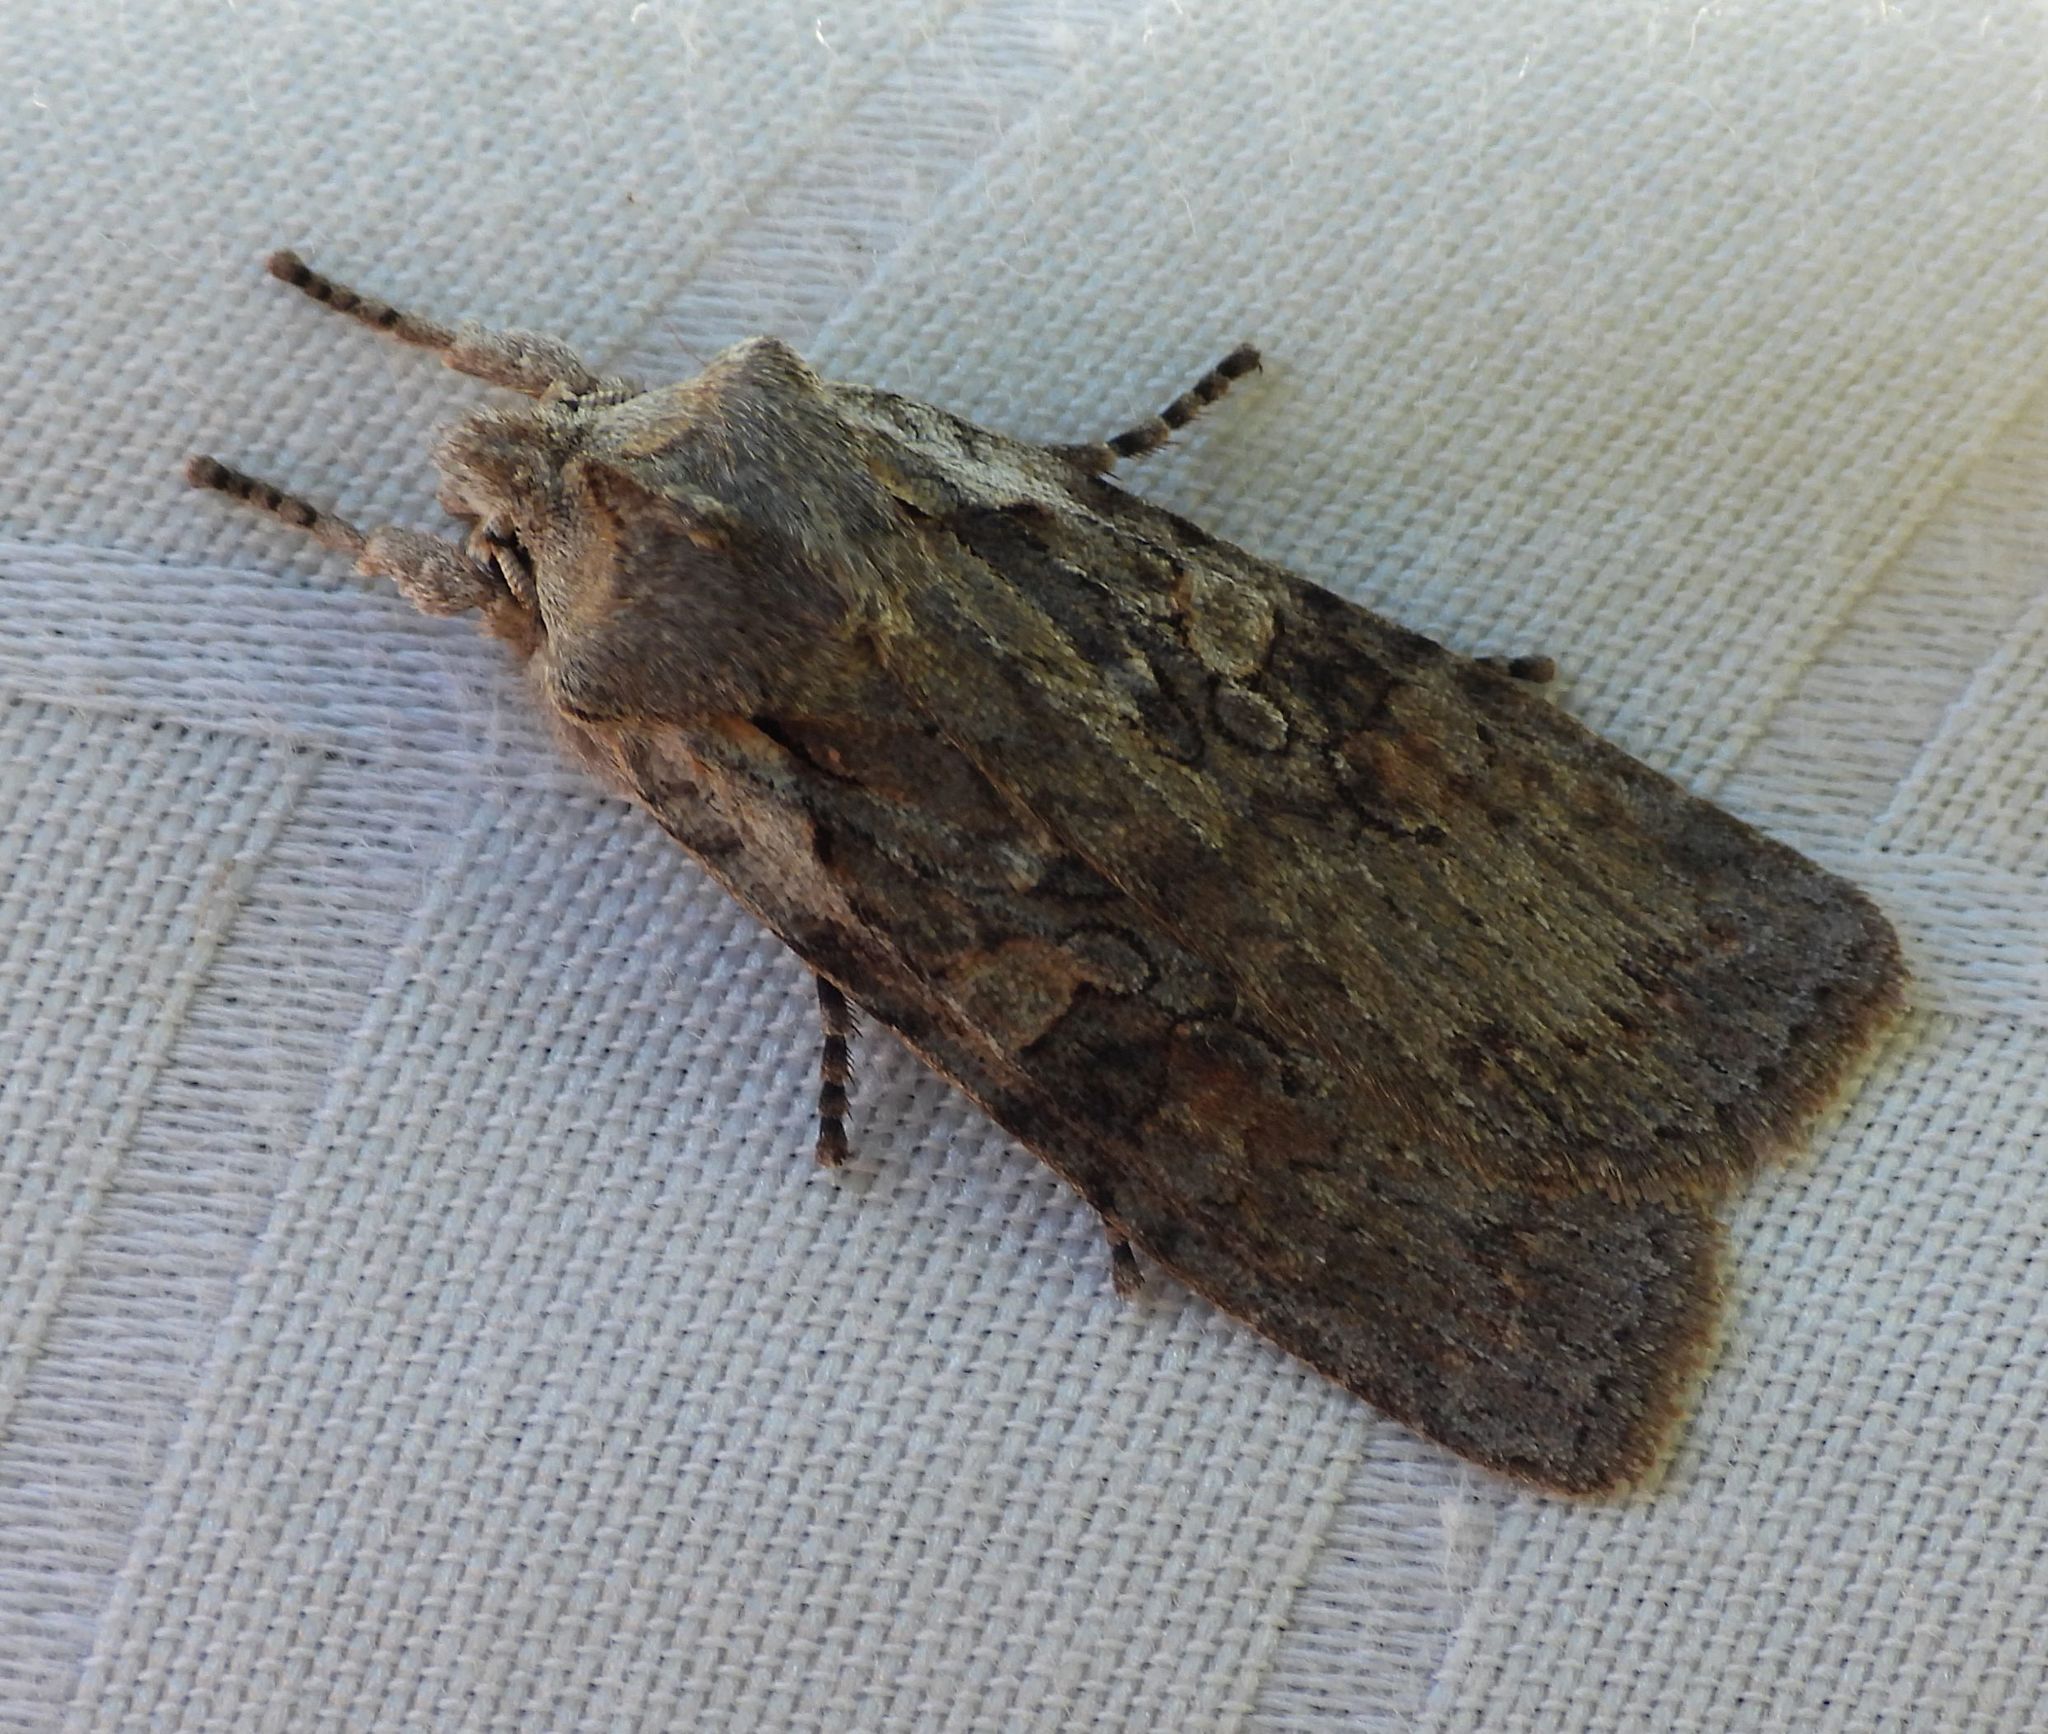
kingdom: Animalia
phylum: Arthropoda
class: Insecta
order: Lepidoptera
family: Noctuidae
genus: Lithophane
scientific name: Lithophane antennata
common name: Ashen pinion
